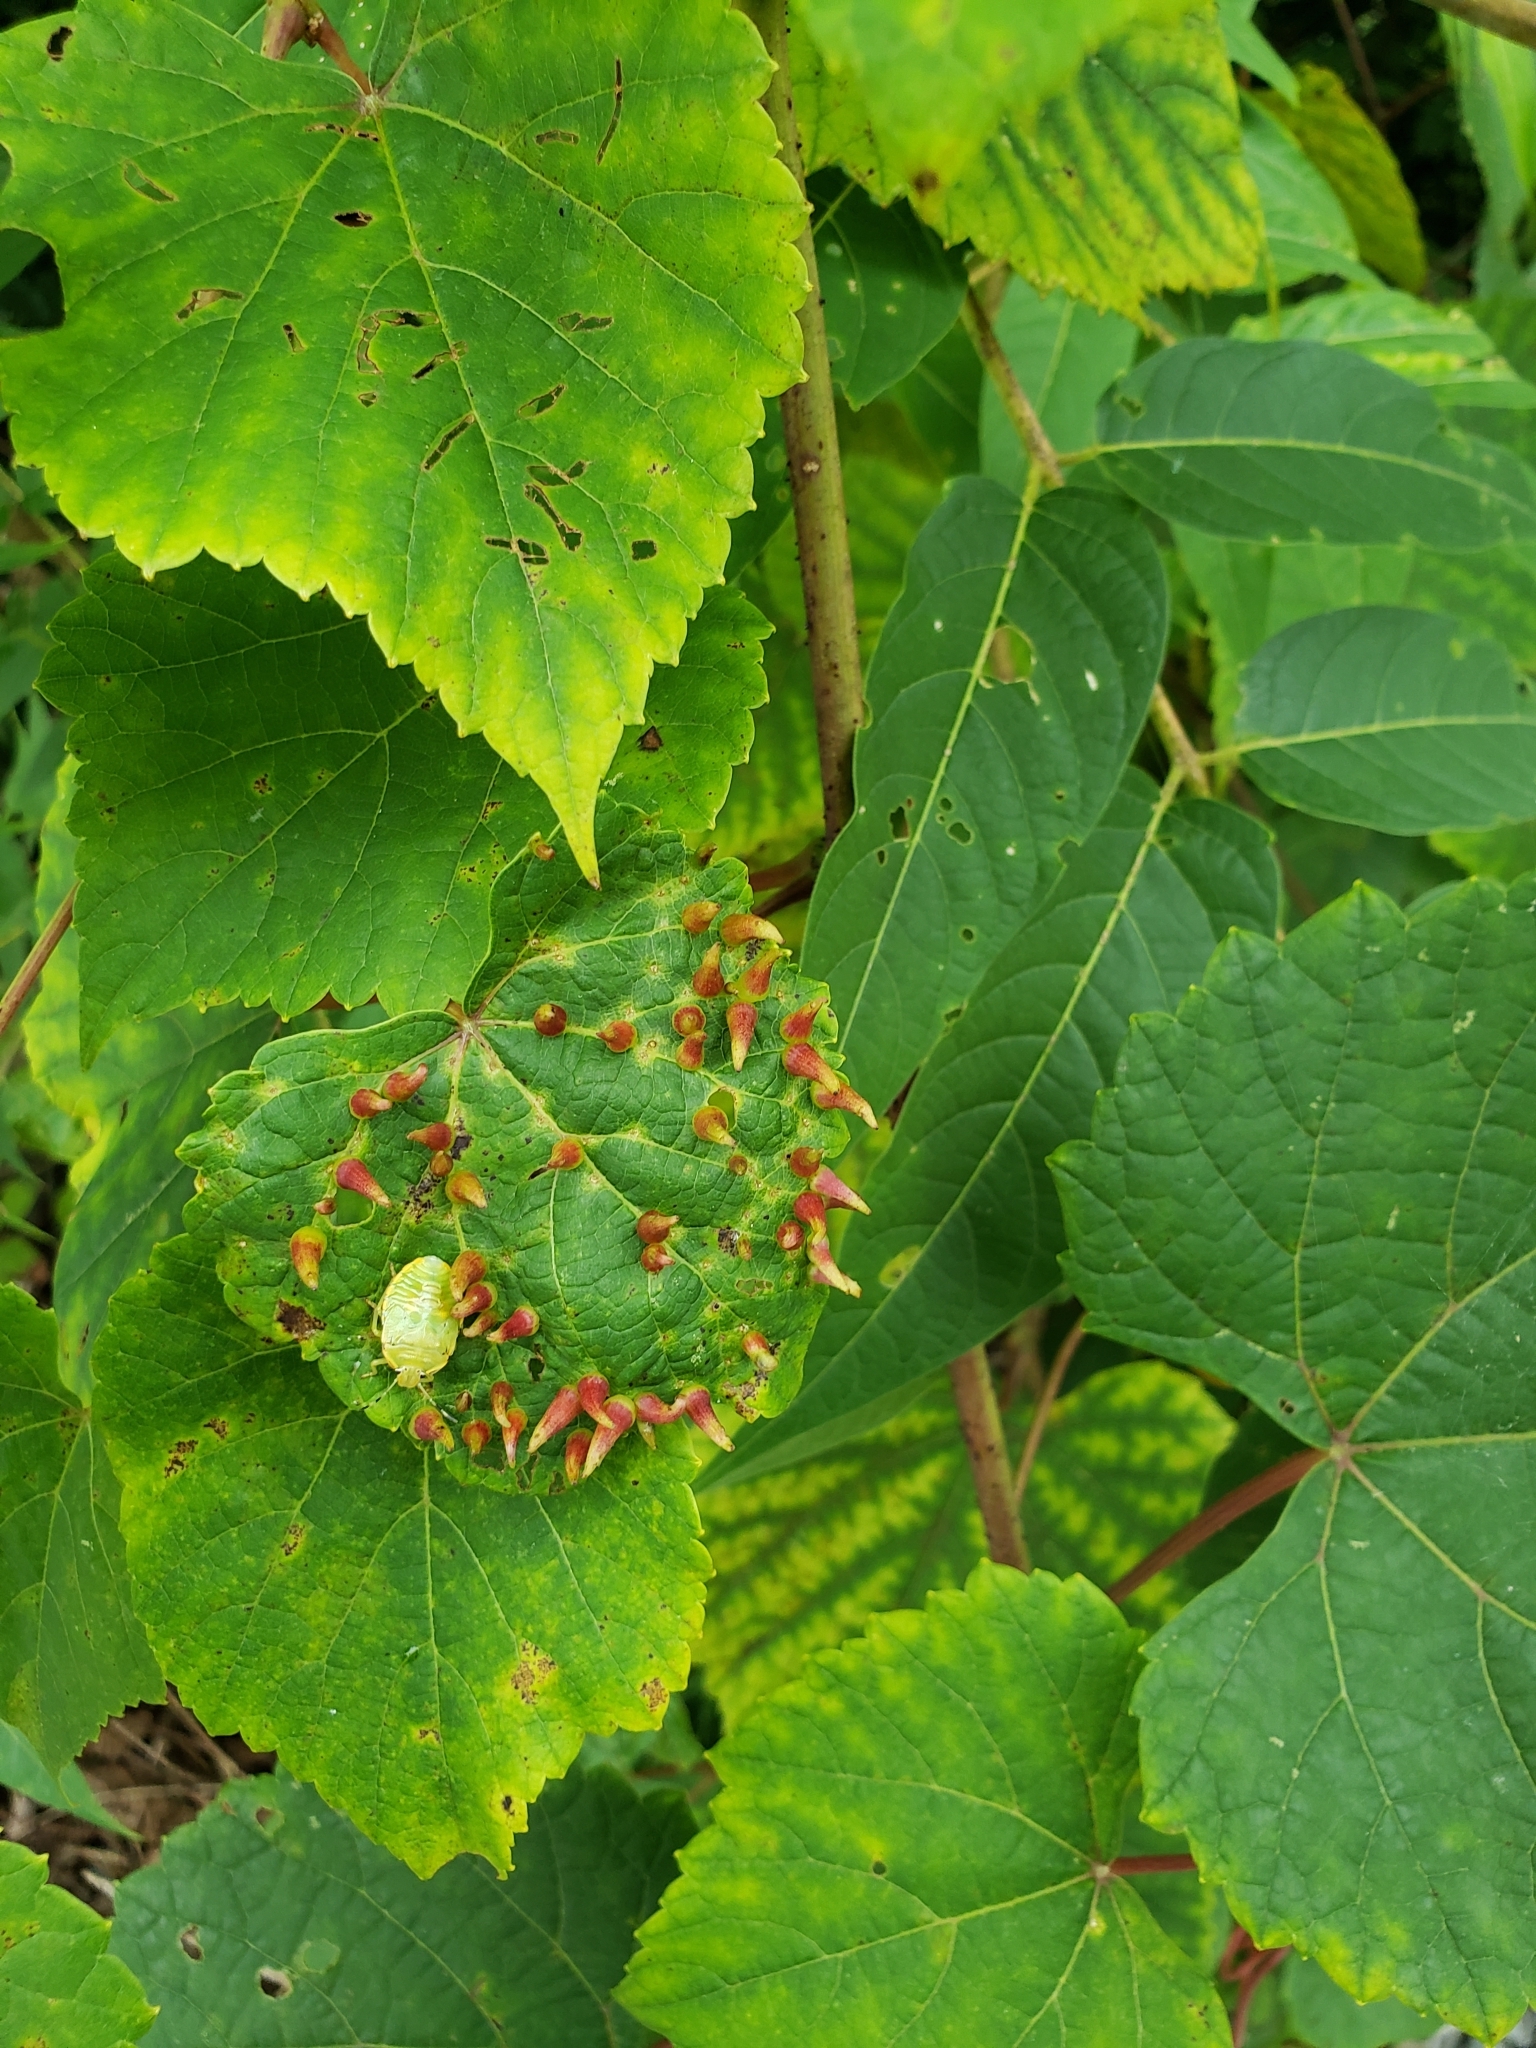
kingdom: Animalia
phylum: Arthropoda
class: Insecta
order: Hemiptera
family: Pentatomidae
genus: Chinavia
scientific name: Chinavia hilaris
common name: Green stink bug
